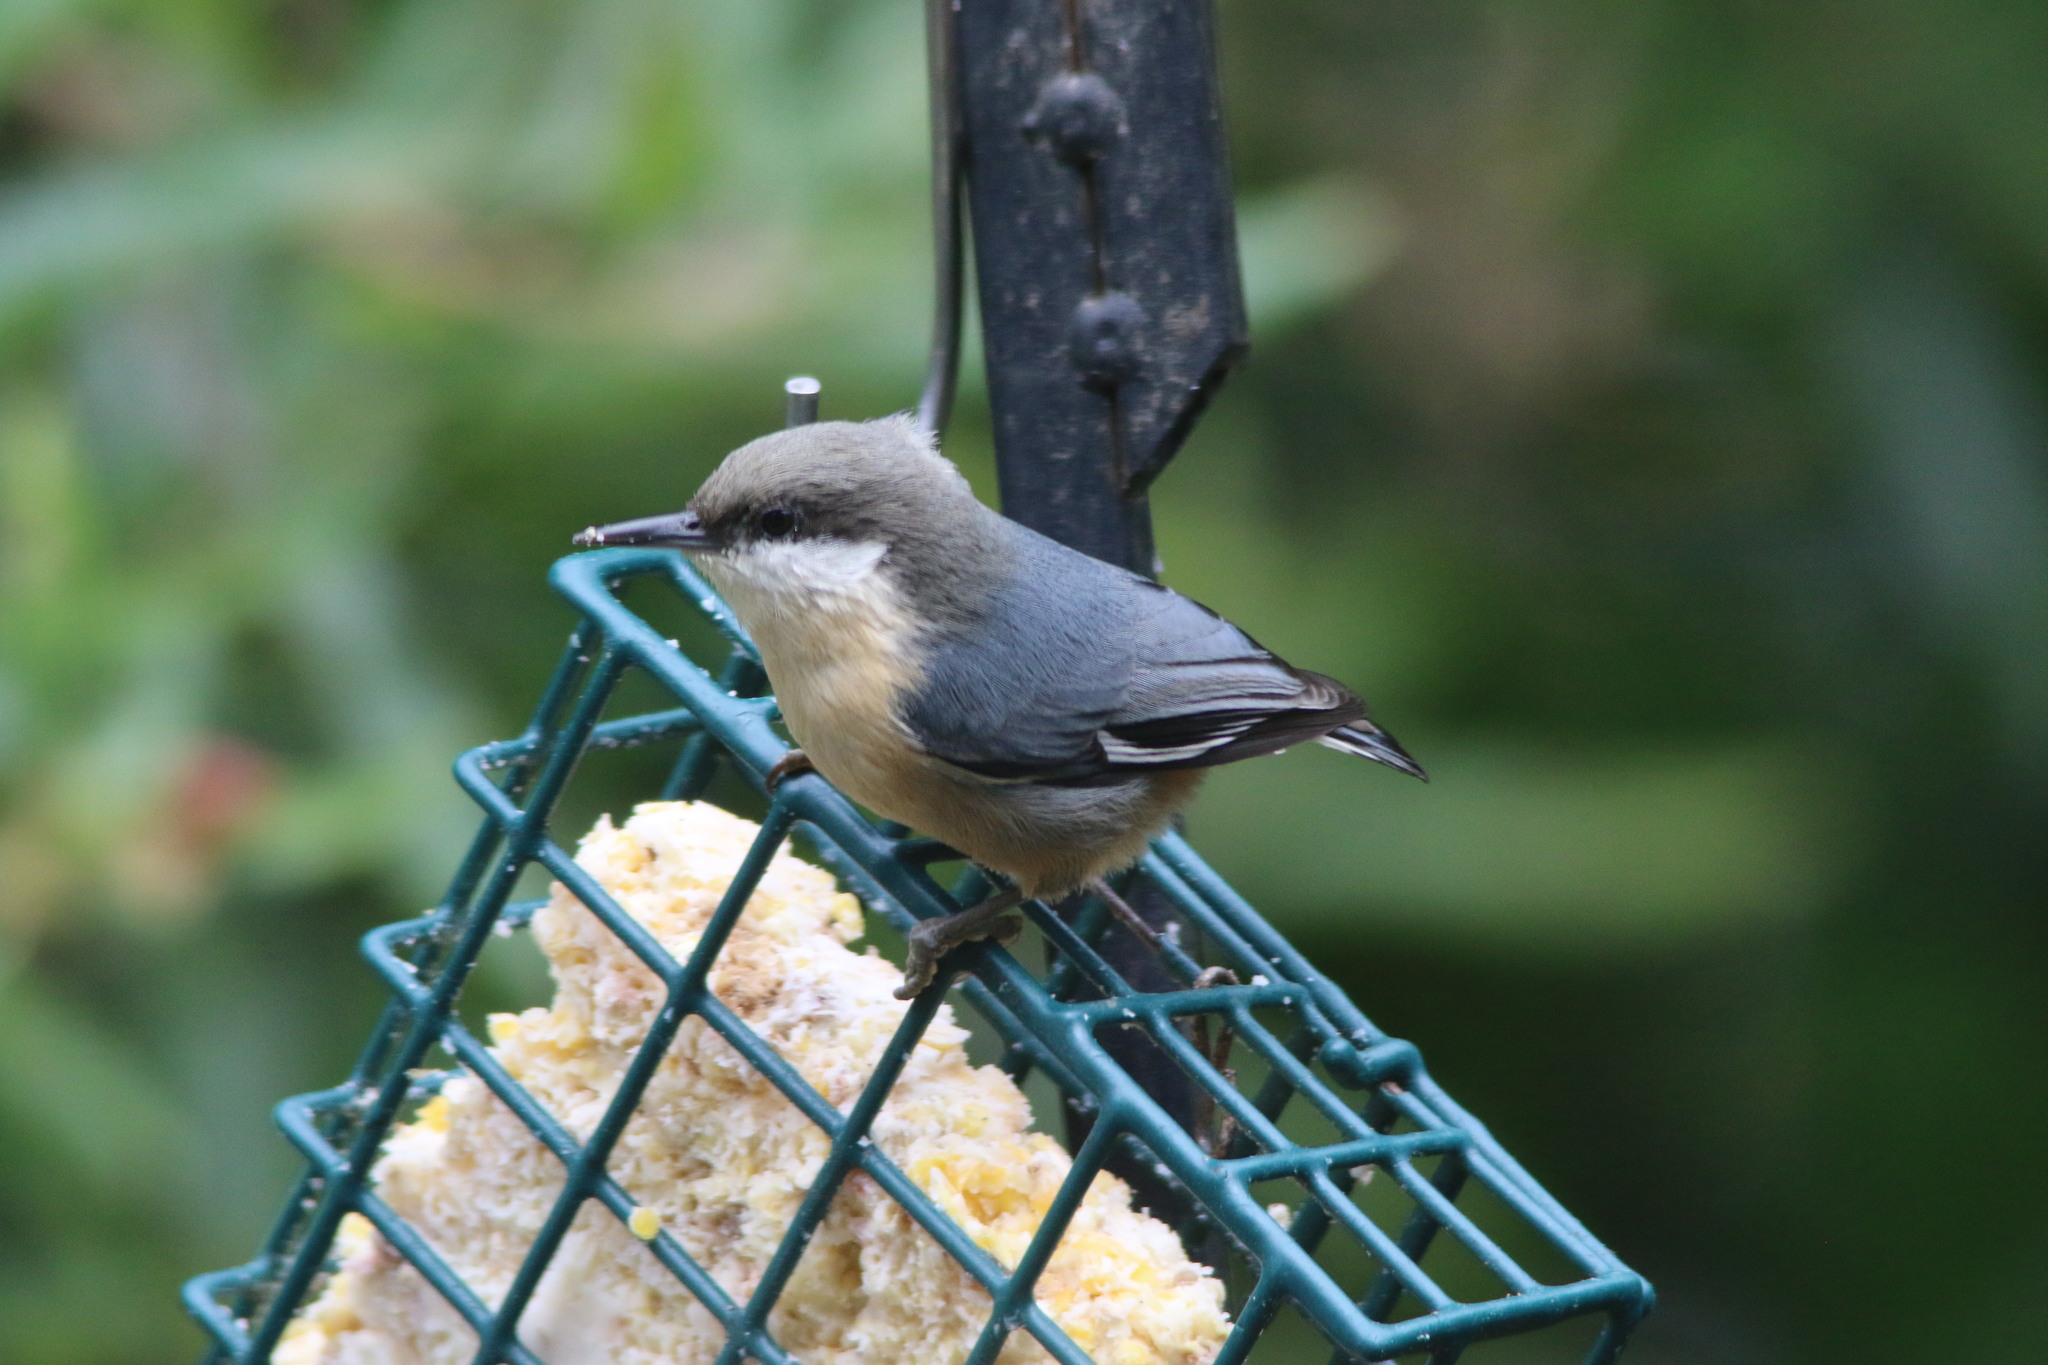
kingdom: Animalia
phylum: Chordata
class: Aves
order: Passeriformes
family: Sittidae
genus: Sitta
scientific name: Sitta pygmaea
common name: Pygmy nuthatch
